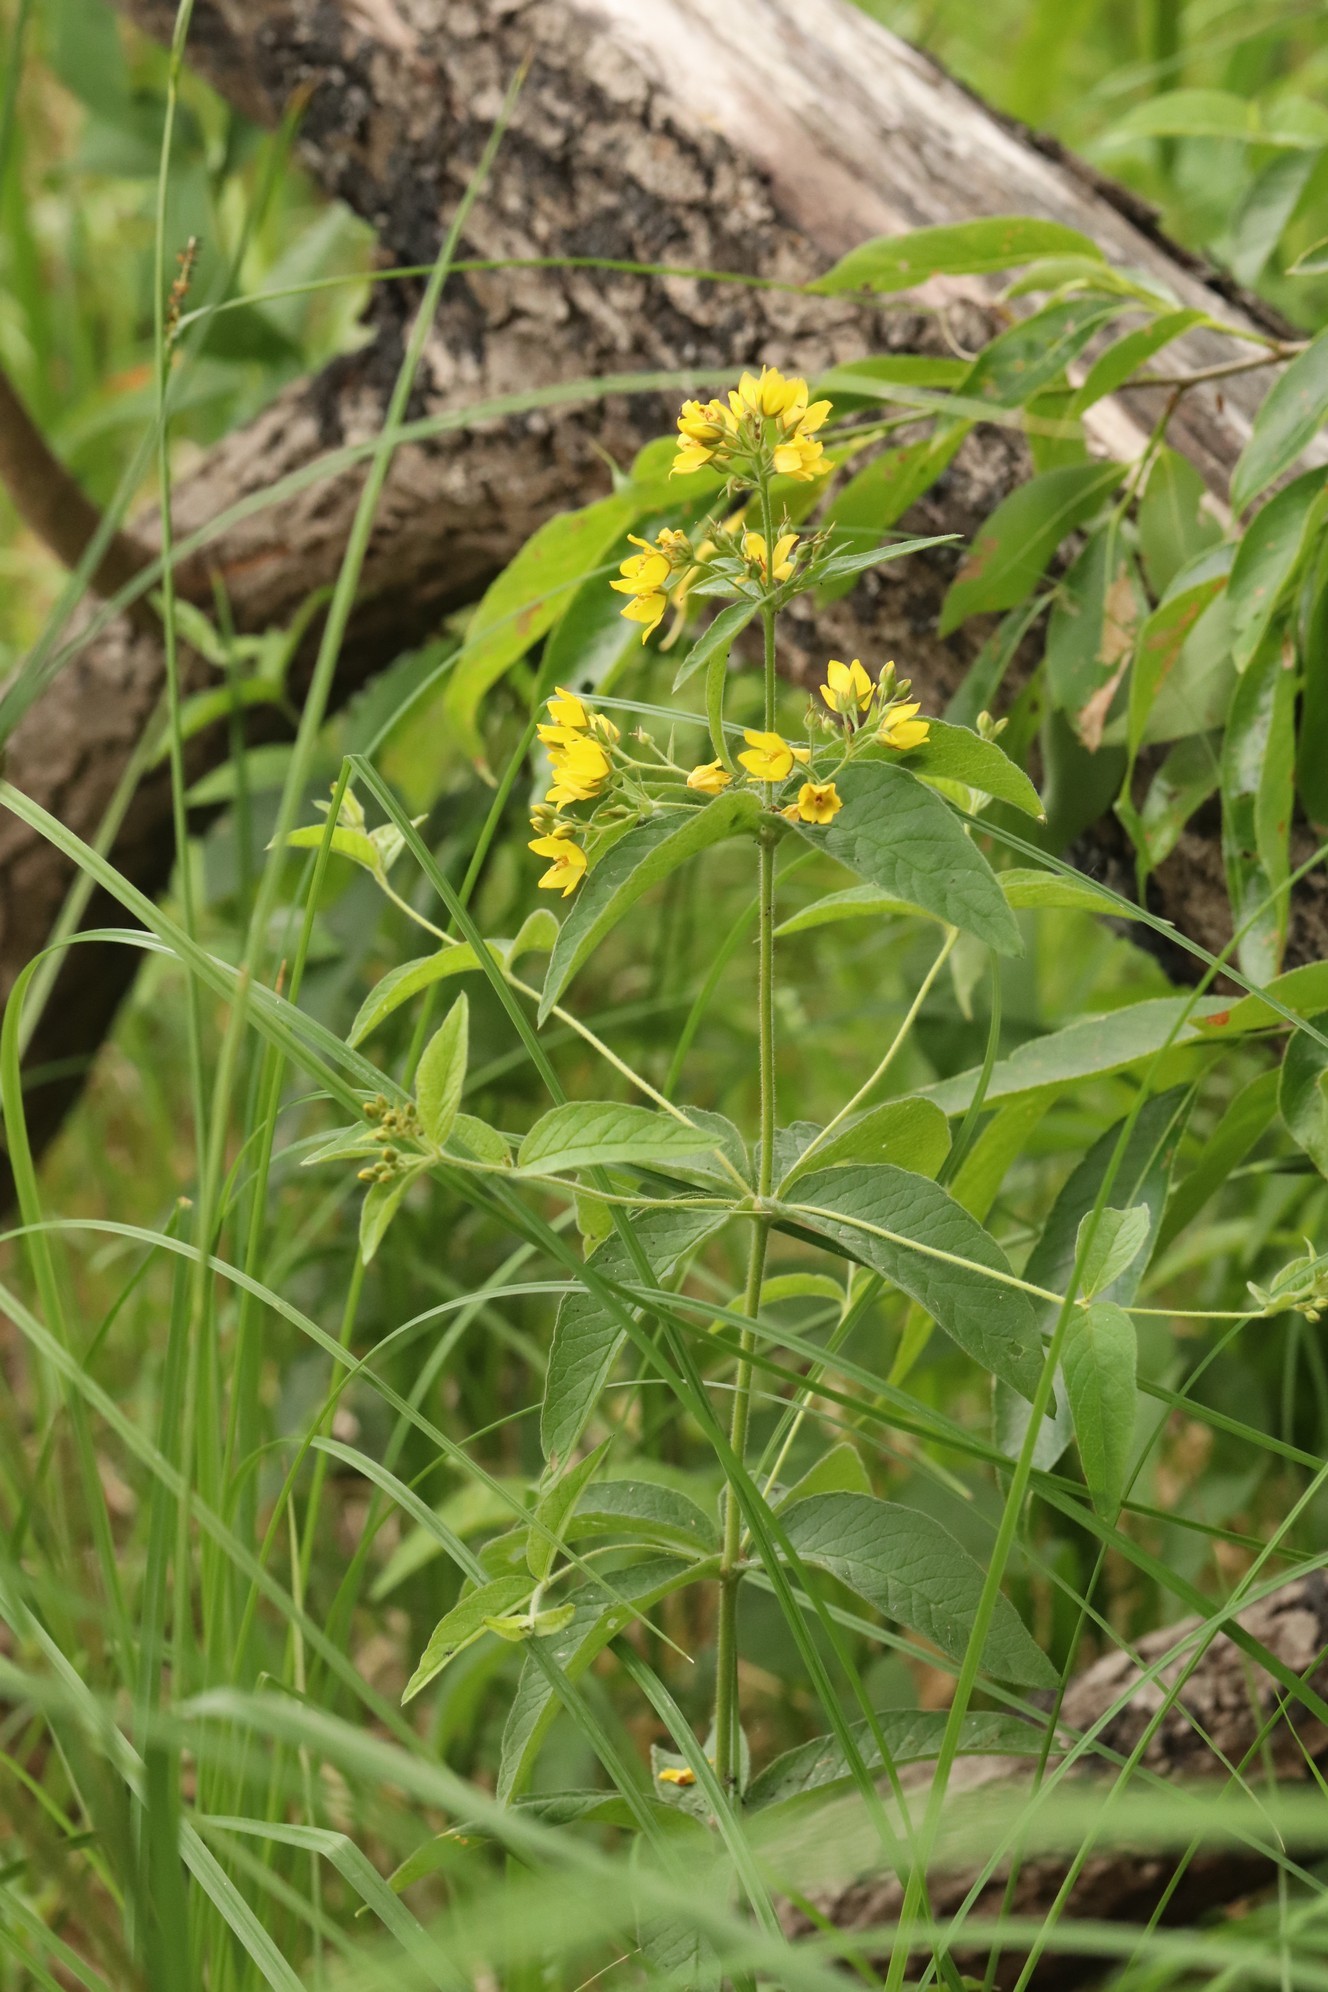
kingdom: Plantae
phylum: Tracheophyta
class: Magnoliopsida
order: Ericales
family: Primulaceae
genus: Lysimachia
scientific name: Lysimachia vulgaris
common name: Yellow loosestrife
